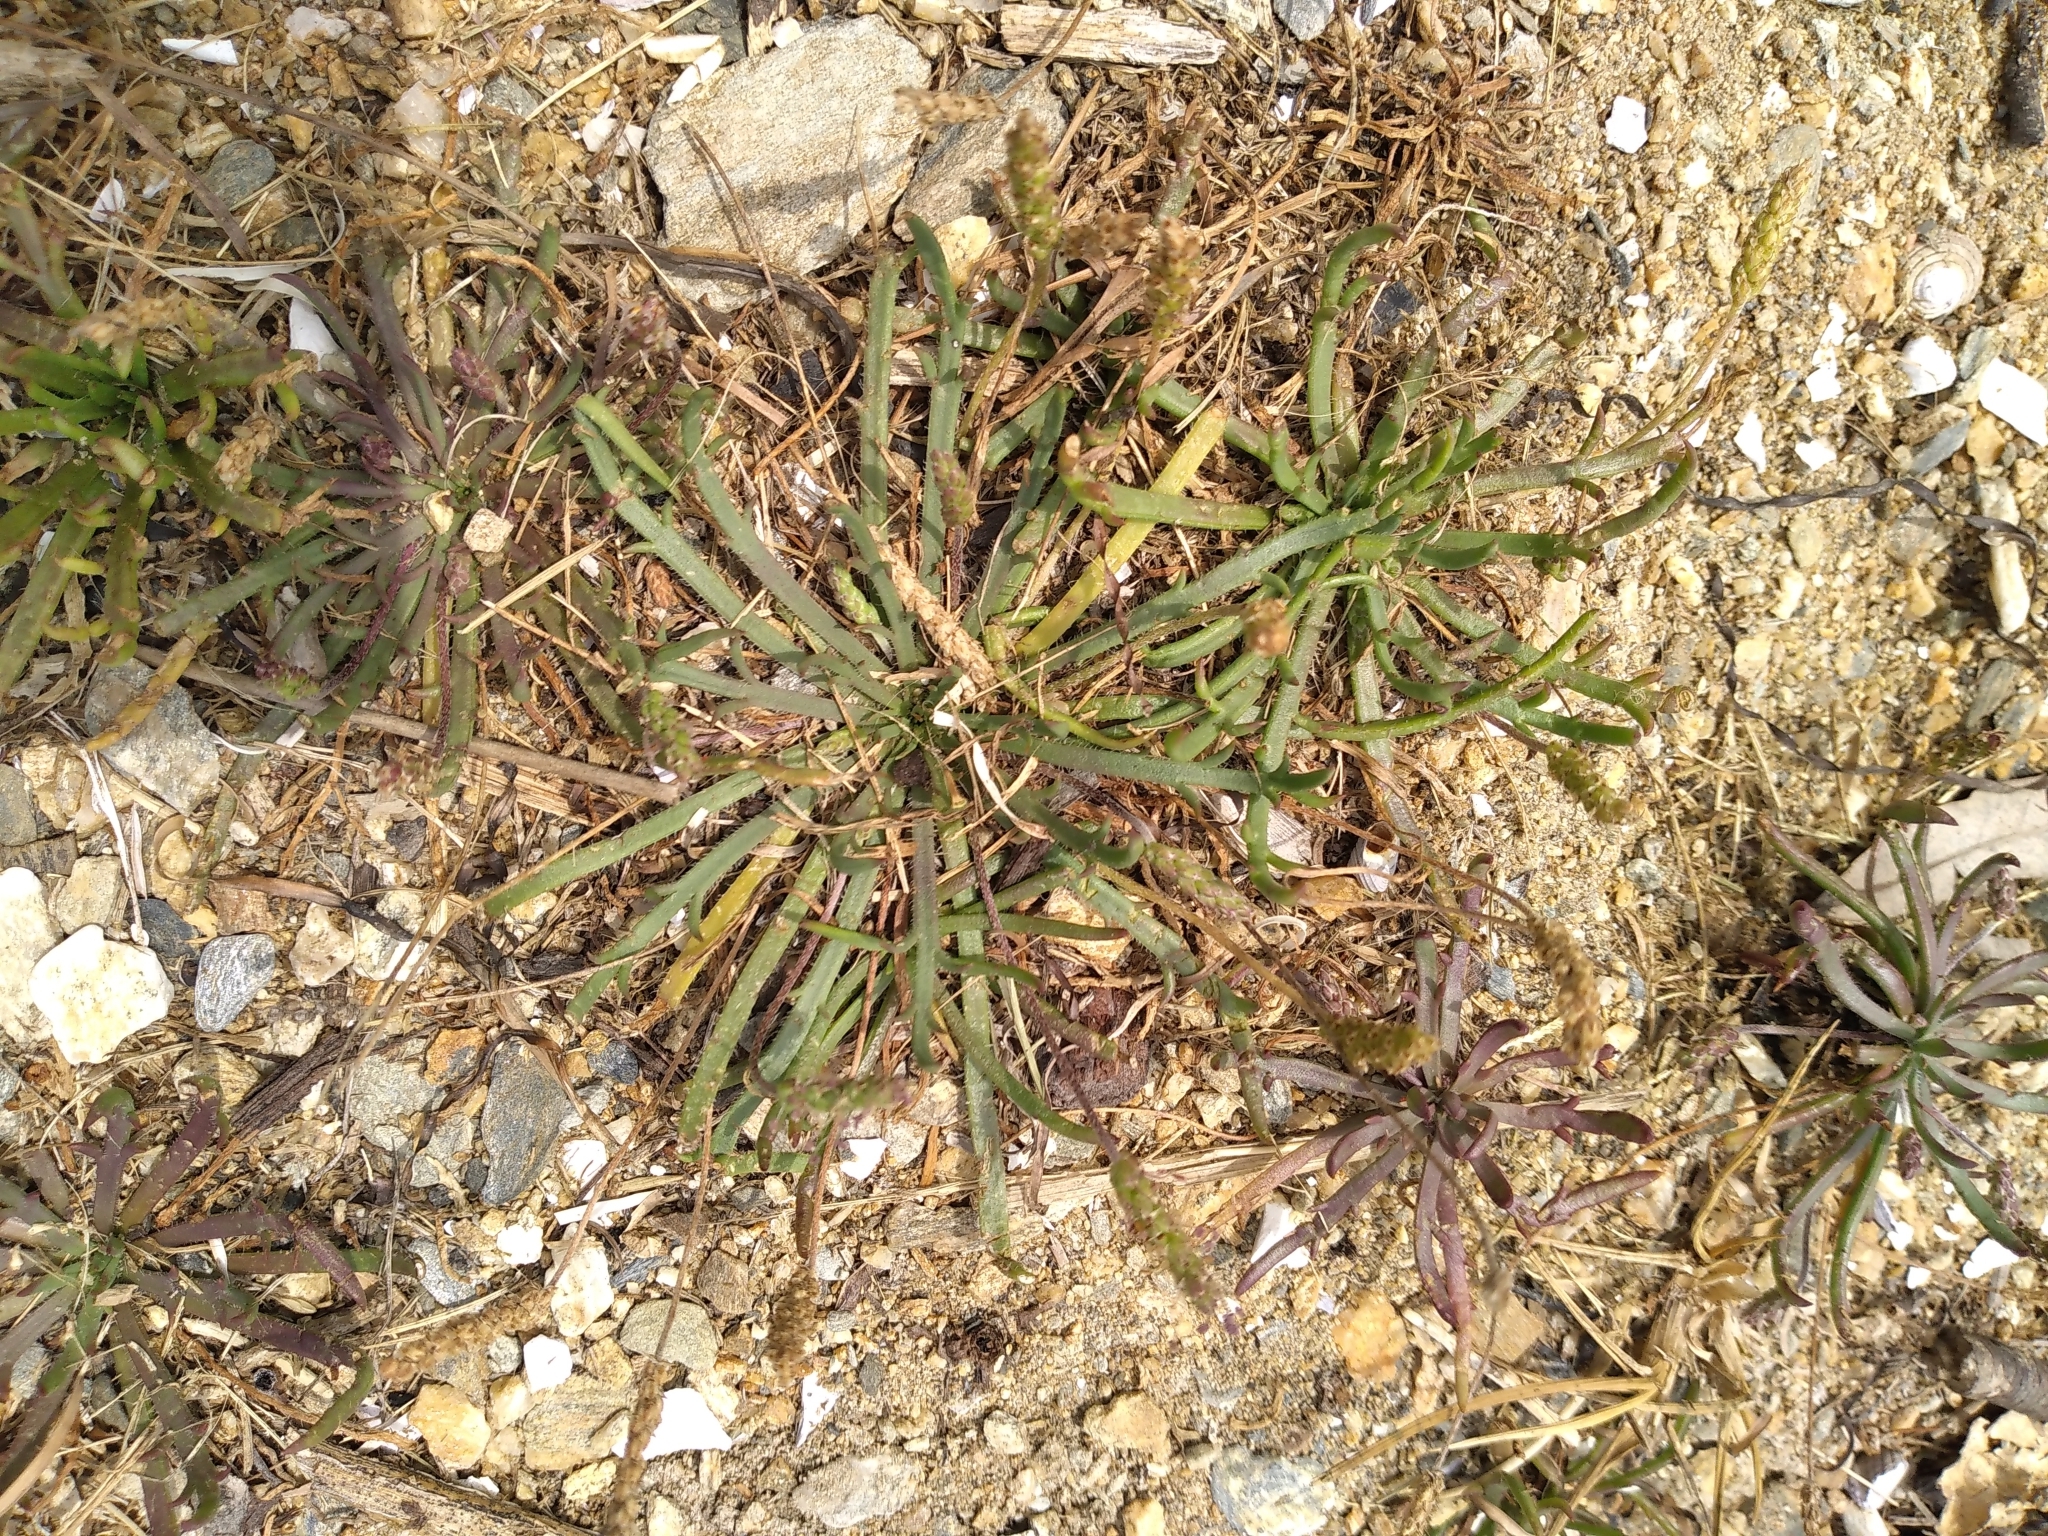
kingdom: Plantae
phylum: Tracheophyta
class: Magnoliopsida
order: Lamiales
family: Plantaginaceae
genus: Plantago
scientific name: Plantago coronopus
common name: Buck's-horn plantain
